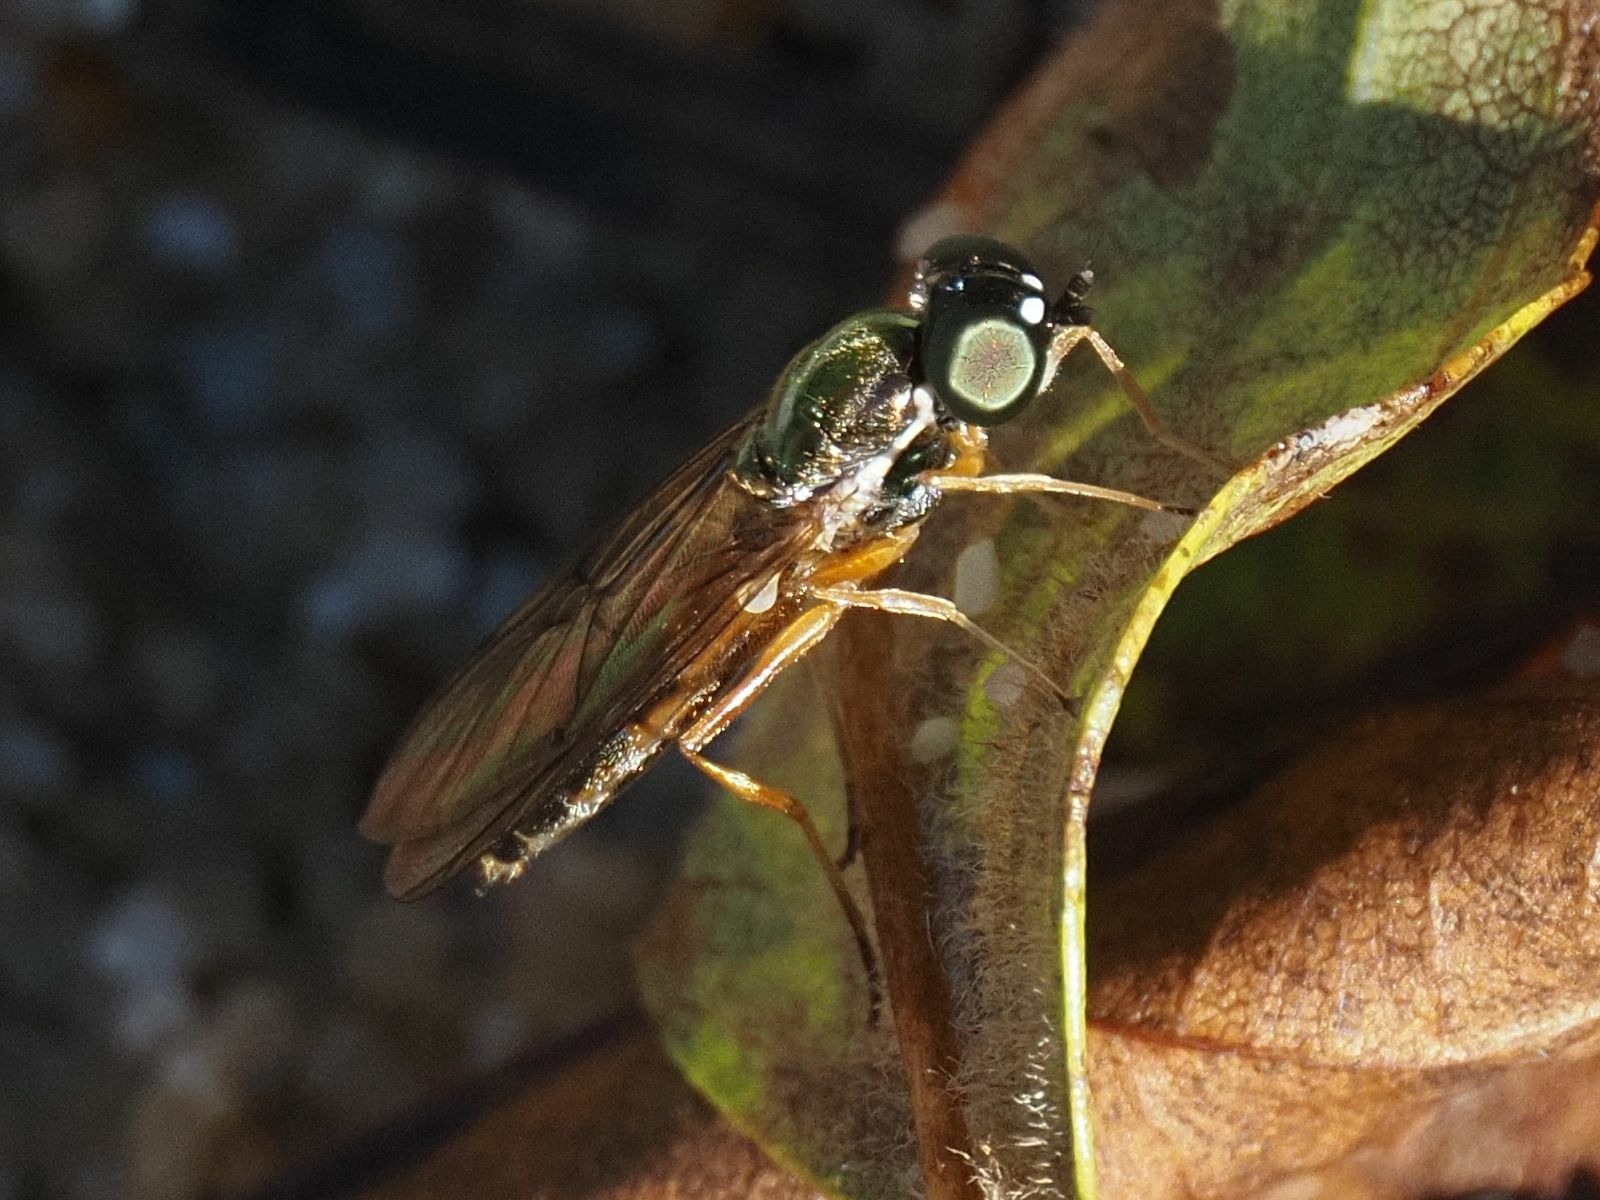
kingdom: Animalia
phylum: Arthropoda
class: Insecta
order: Diptera
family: Stratiomyidae
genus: Sargus
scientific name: Sargus bipunctatus
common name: Twin-spot centurion
